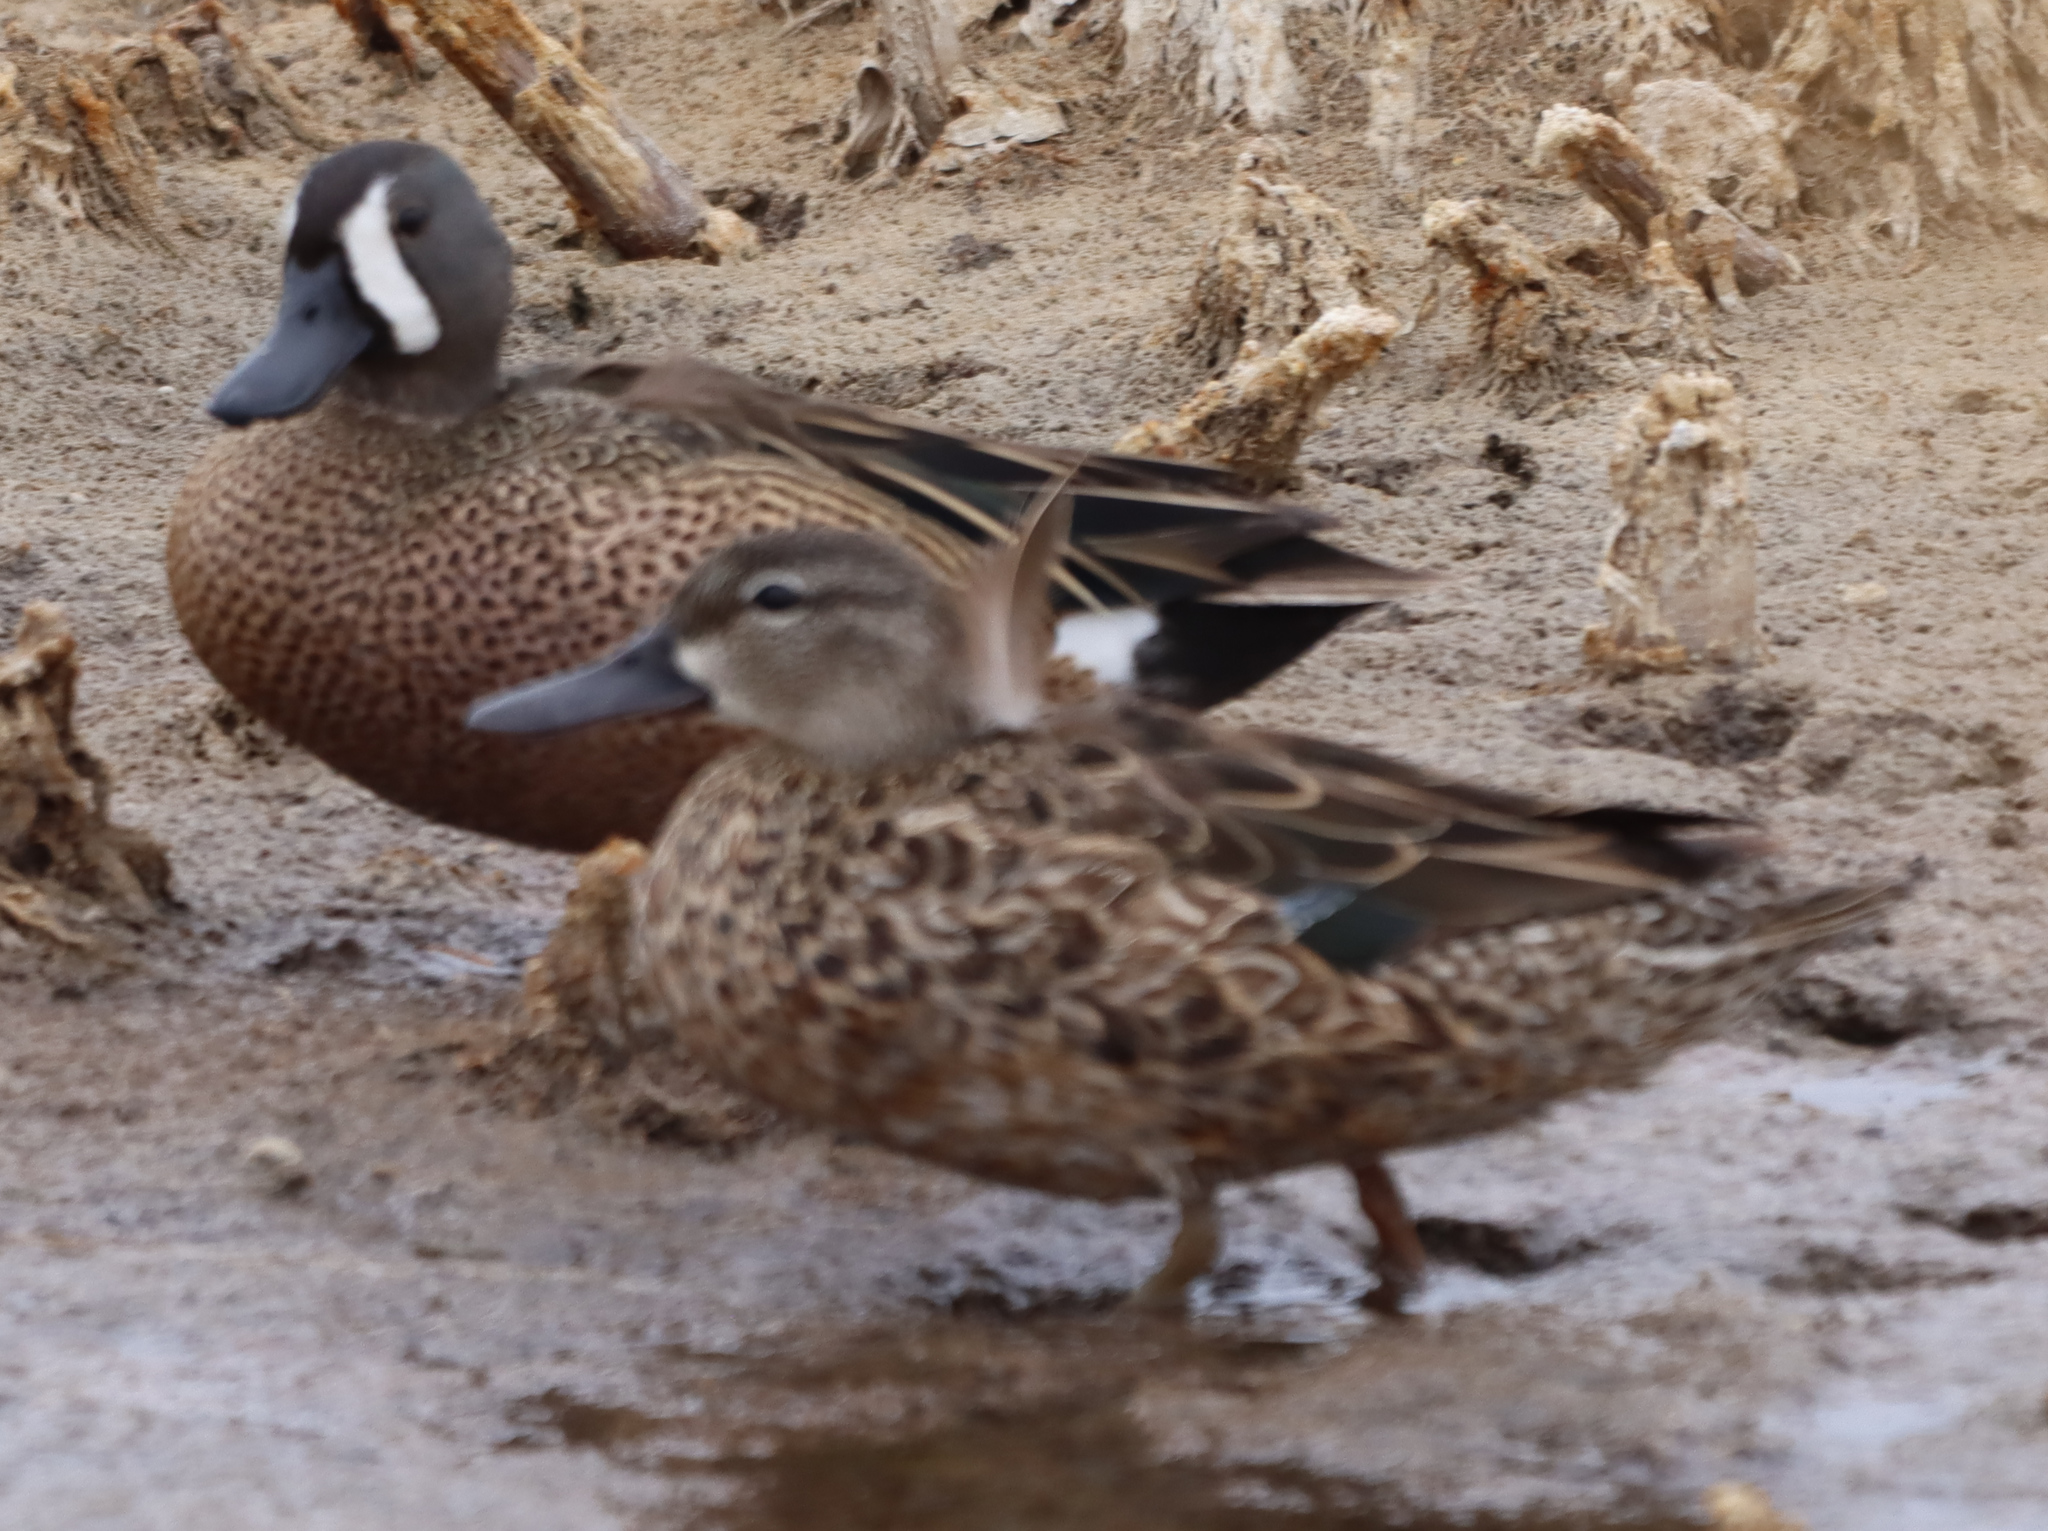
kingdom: Animalia
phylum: Chordata
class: Aves
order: Anseriformes
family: Anatidae
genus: Spatula
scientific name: Spatula discors
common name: Blue-winged teal
